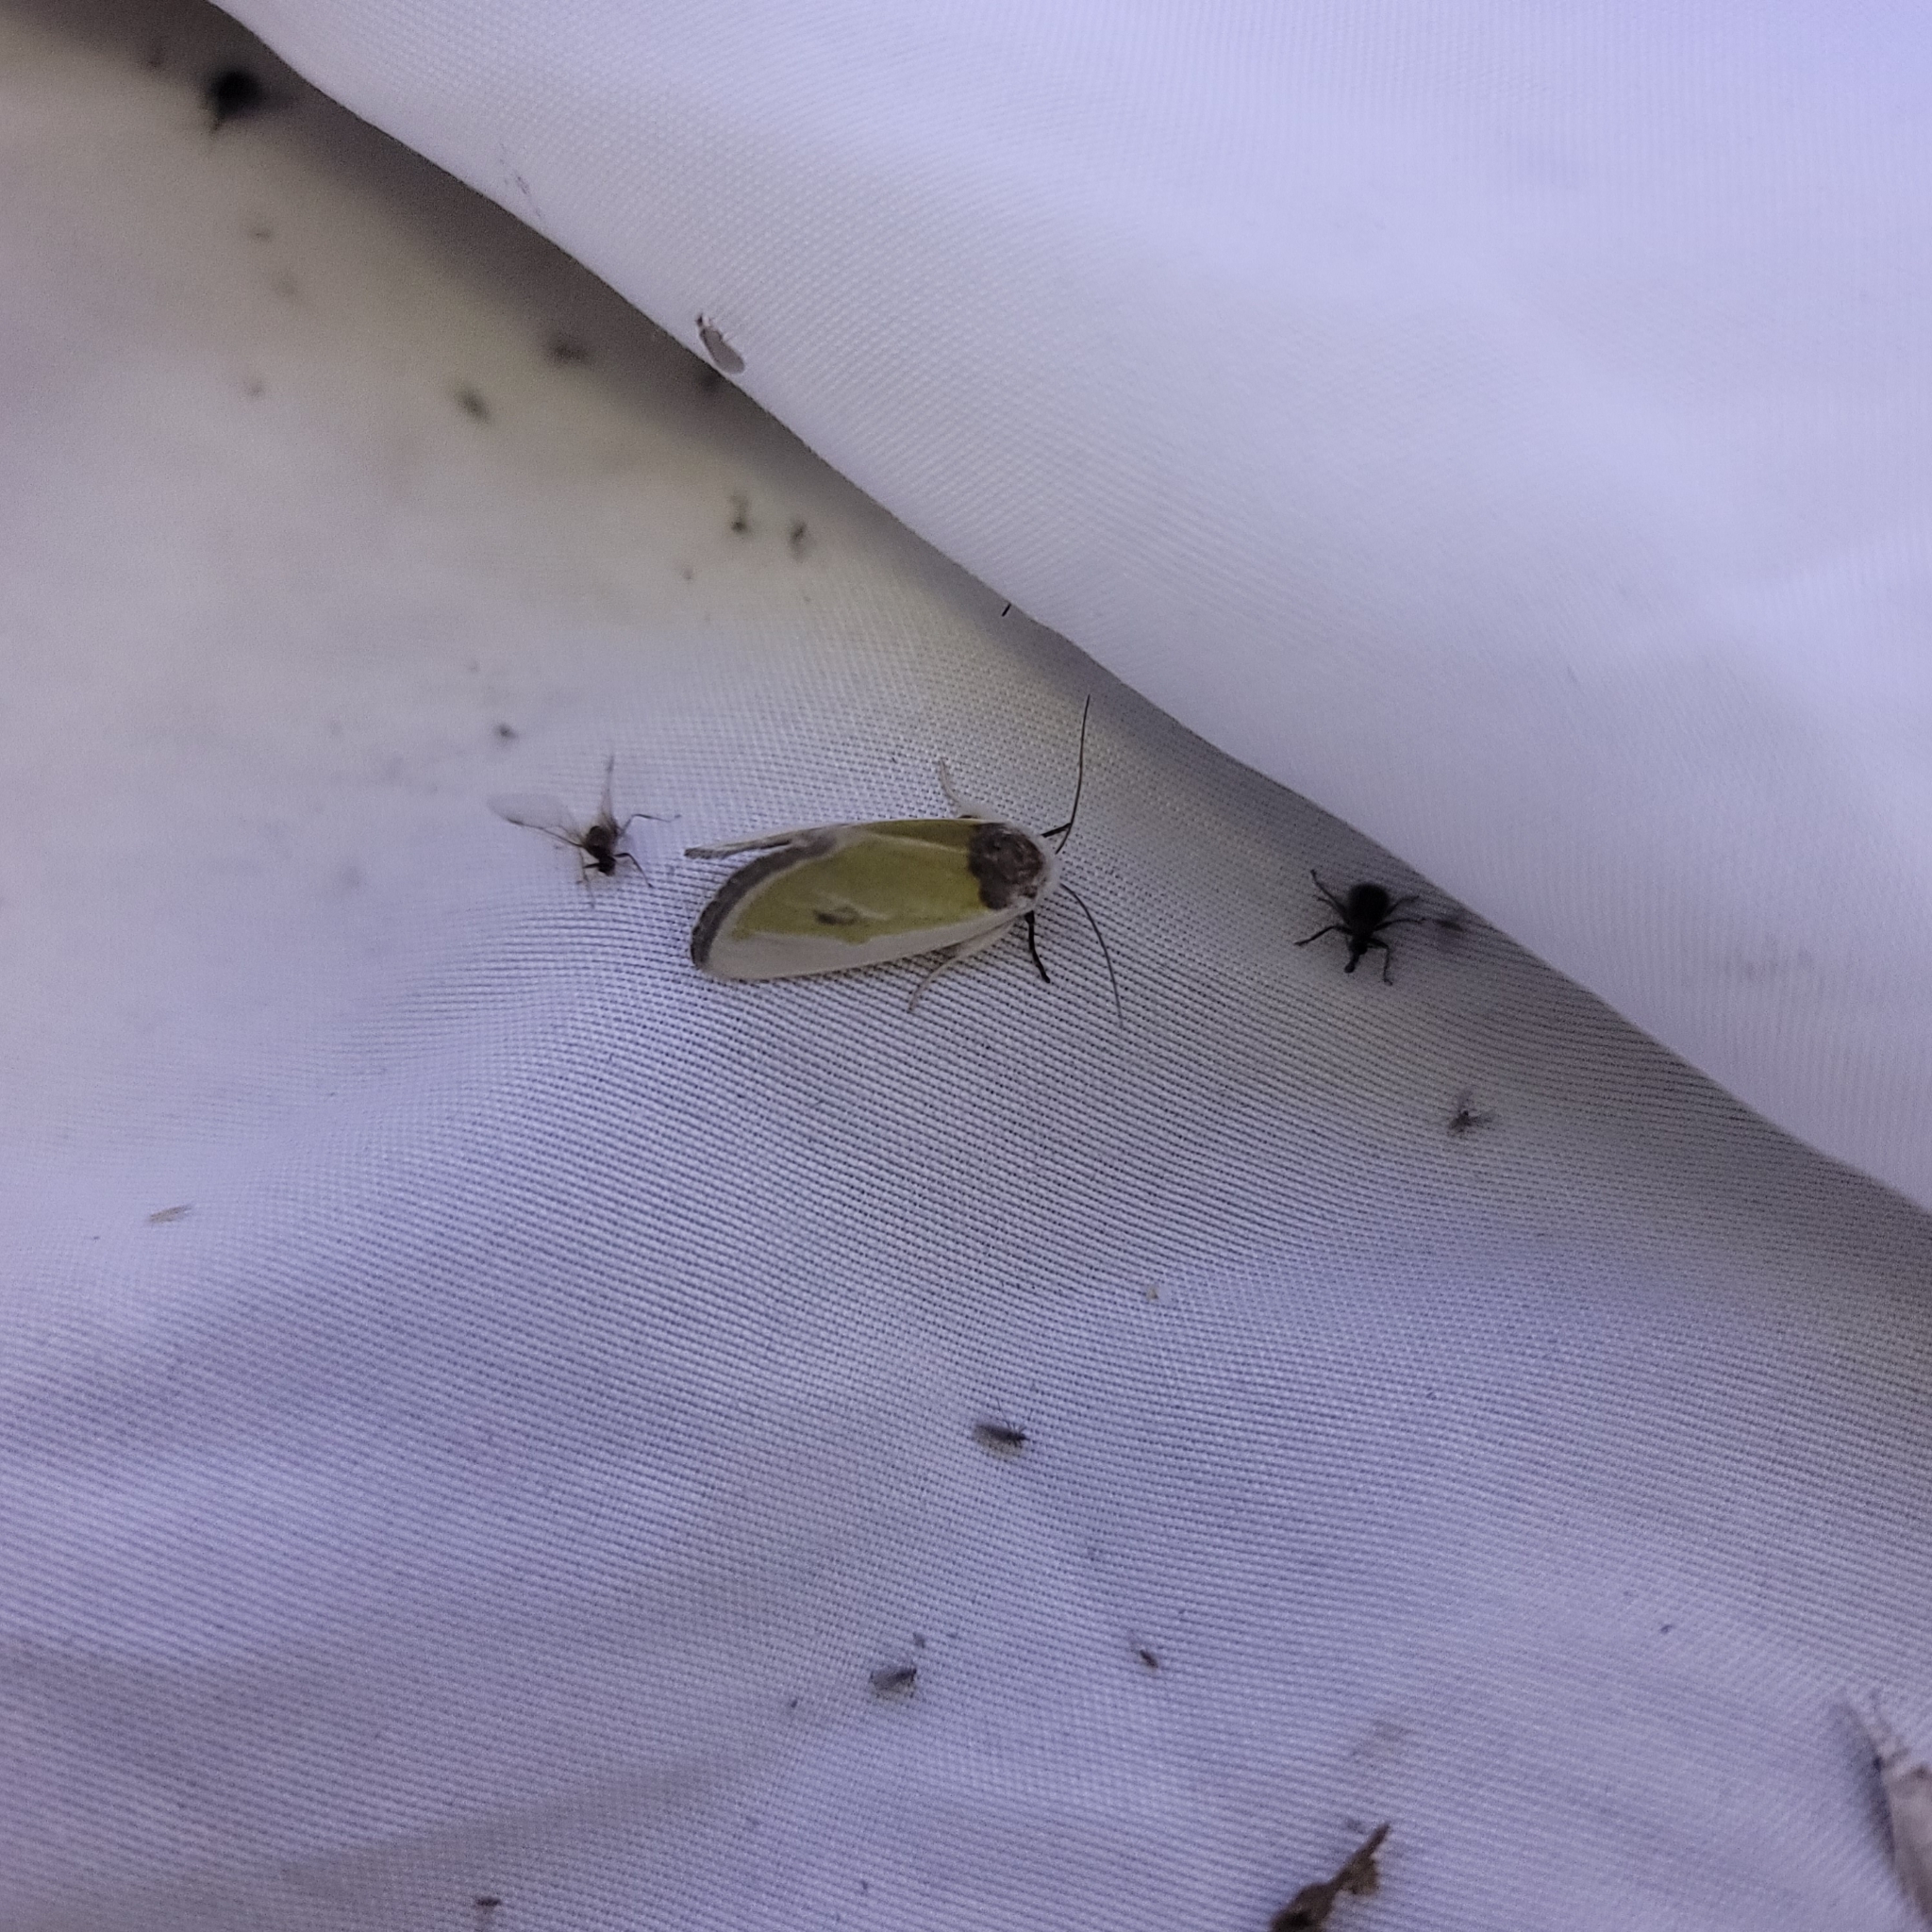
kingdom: Animalia
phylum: Arthropoda
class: Insecta
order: Lepidoptera
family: Noctuidae
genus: Neumoegenia
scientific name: Neumoegenia poetica
